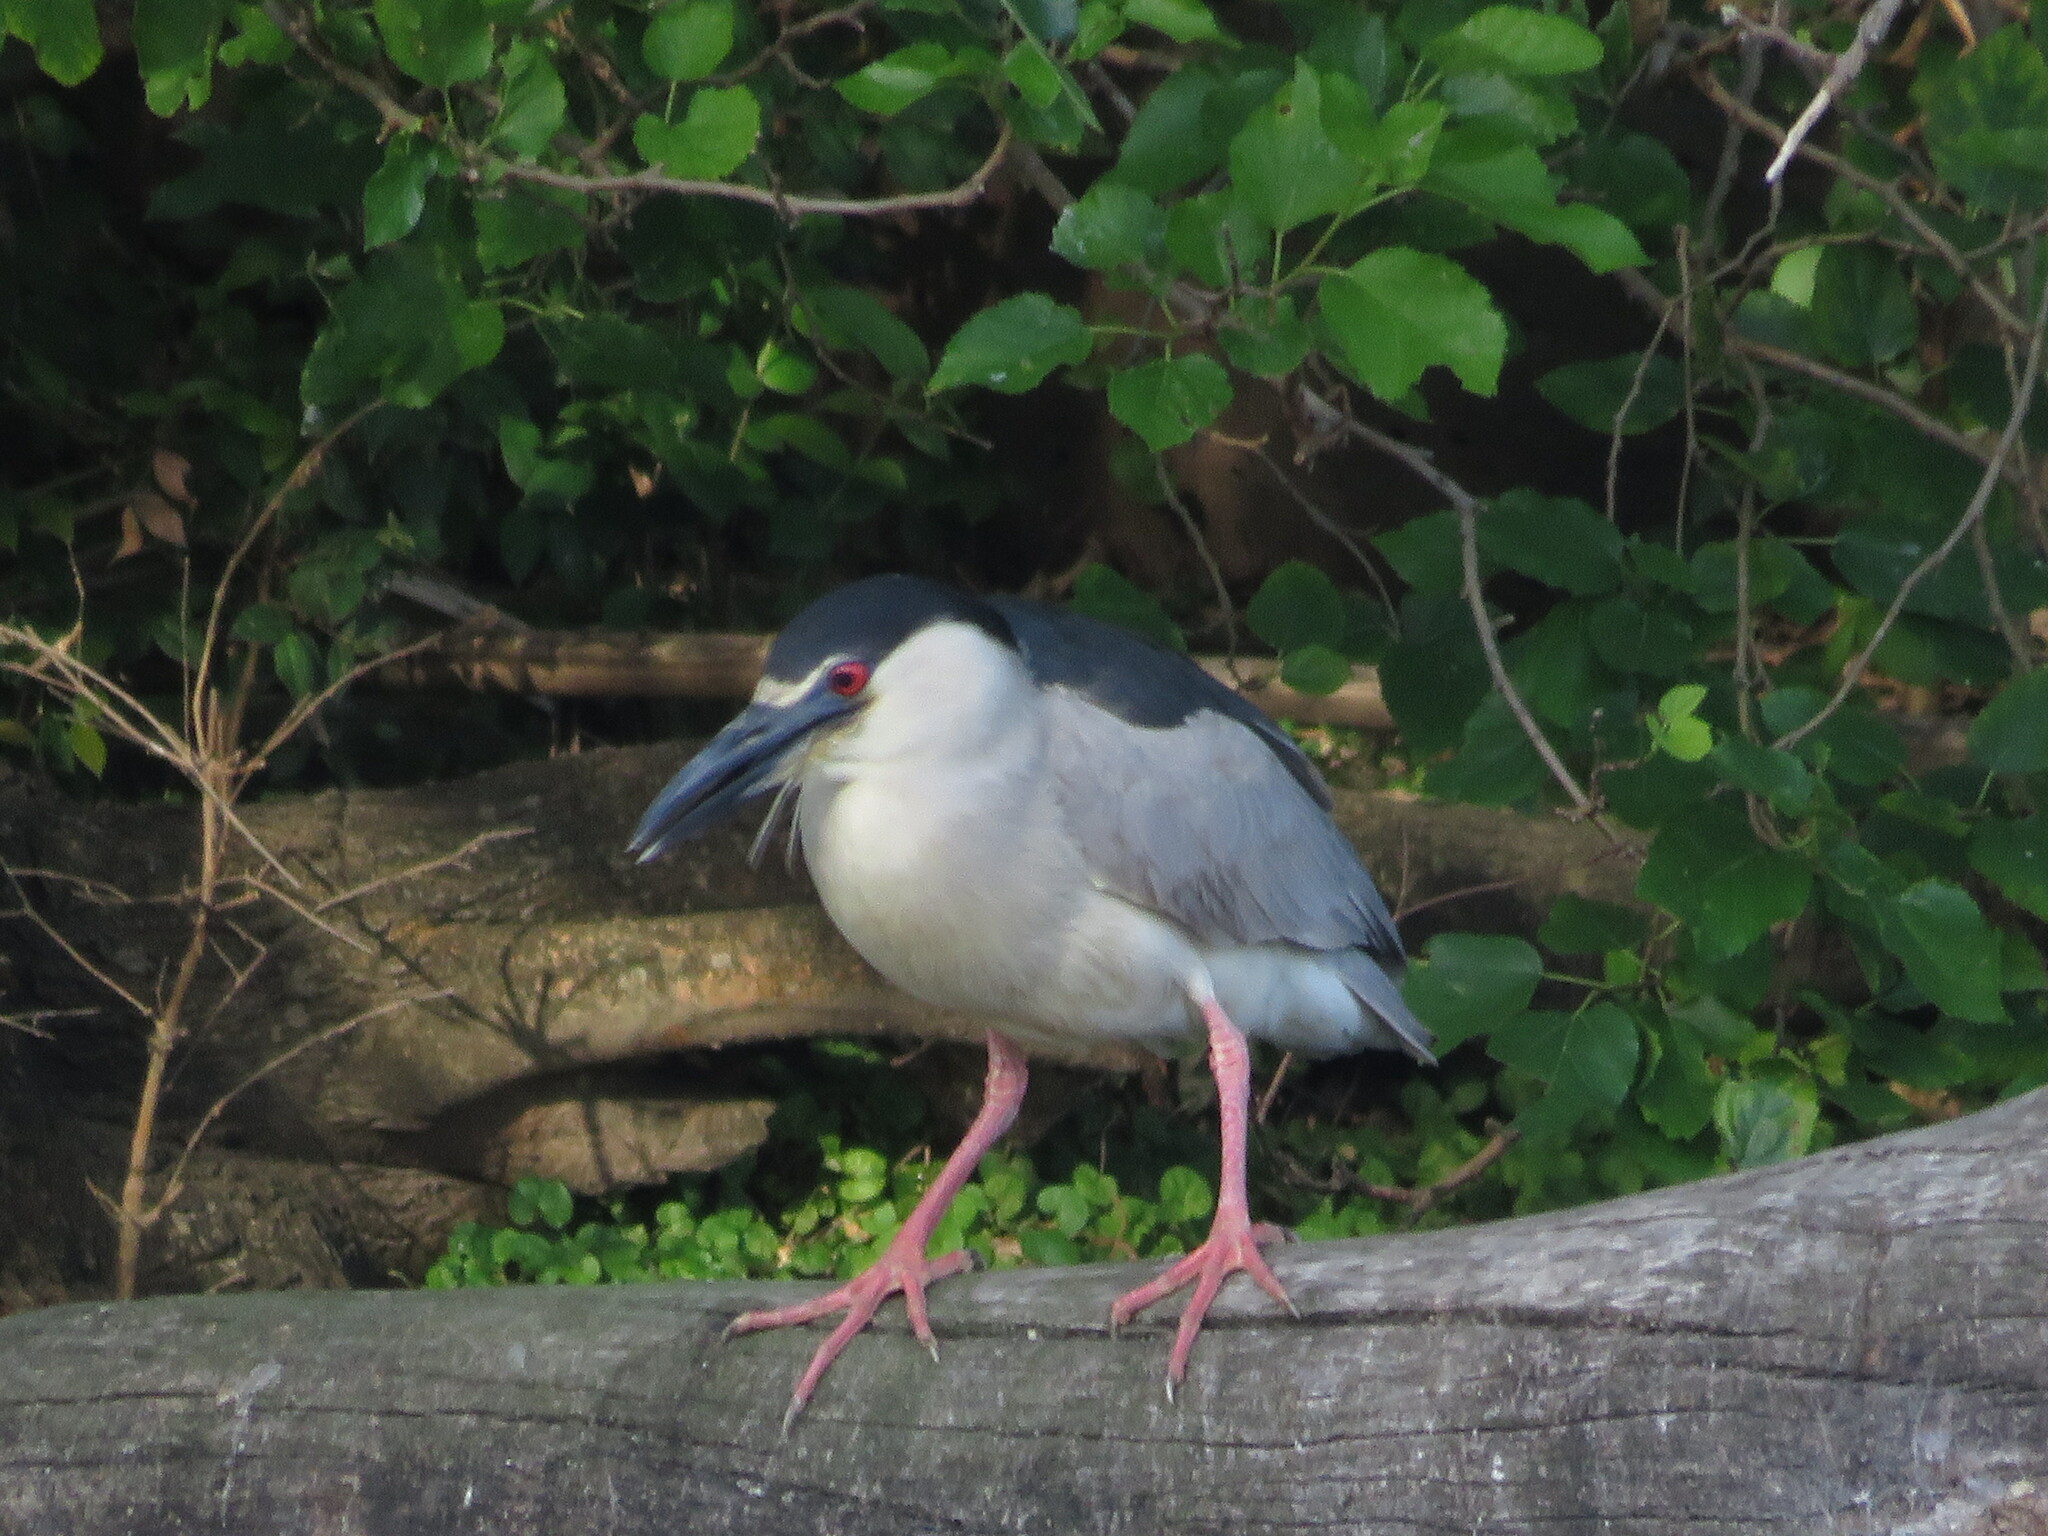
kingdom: Animalia
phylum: Chordata
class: Aves
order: Pelecaniformes
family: Ardeidae
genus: Nycticorax
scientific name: Nycticorax nycticorax
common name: Black-crowned night heron
